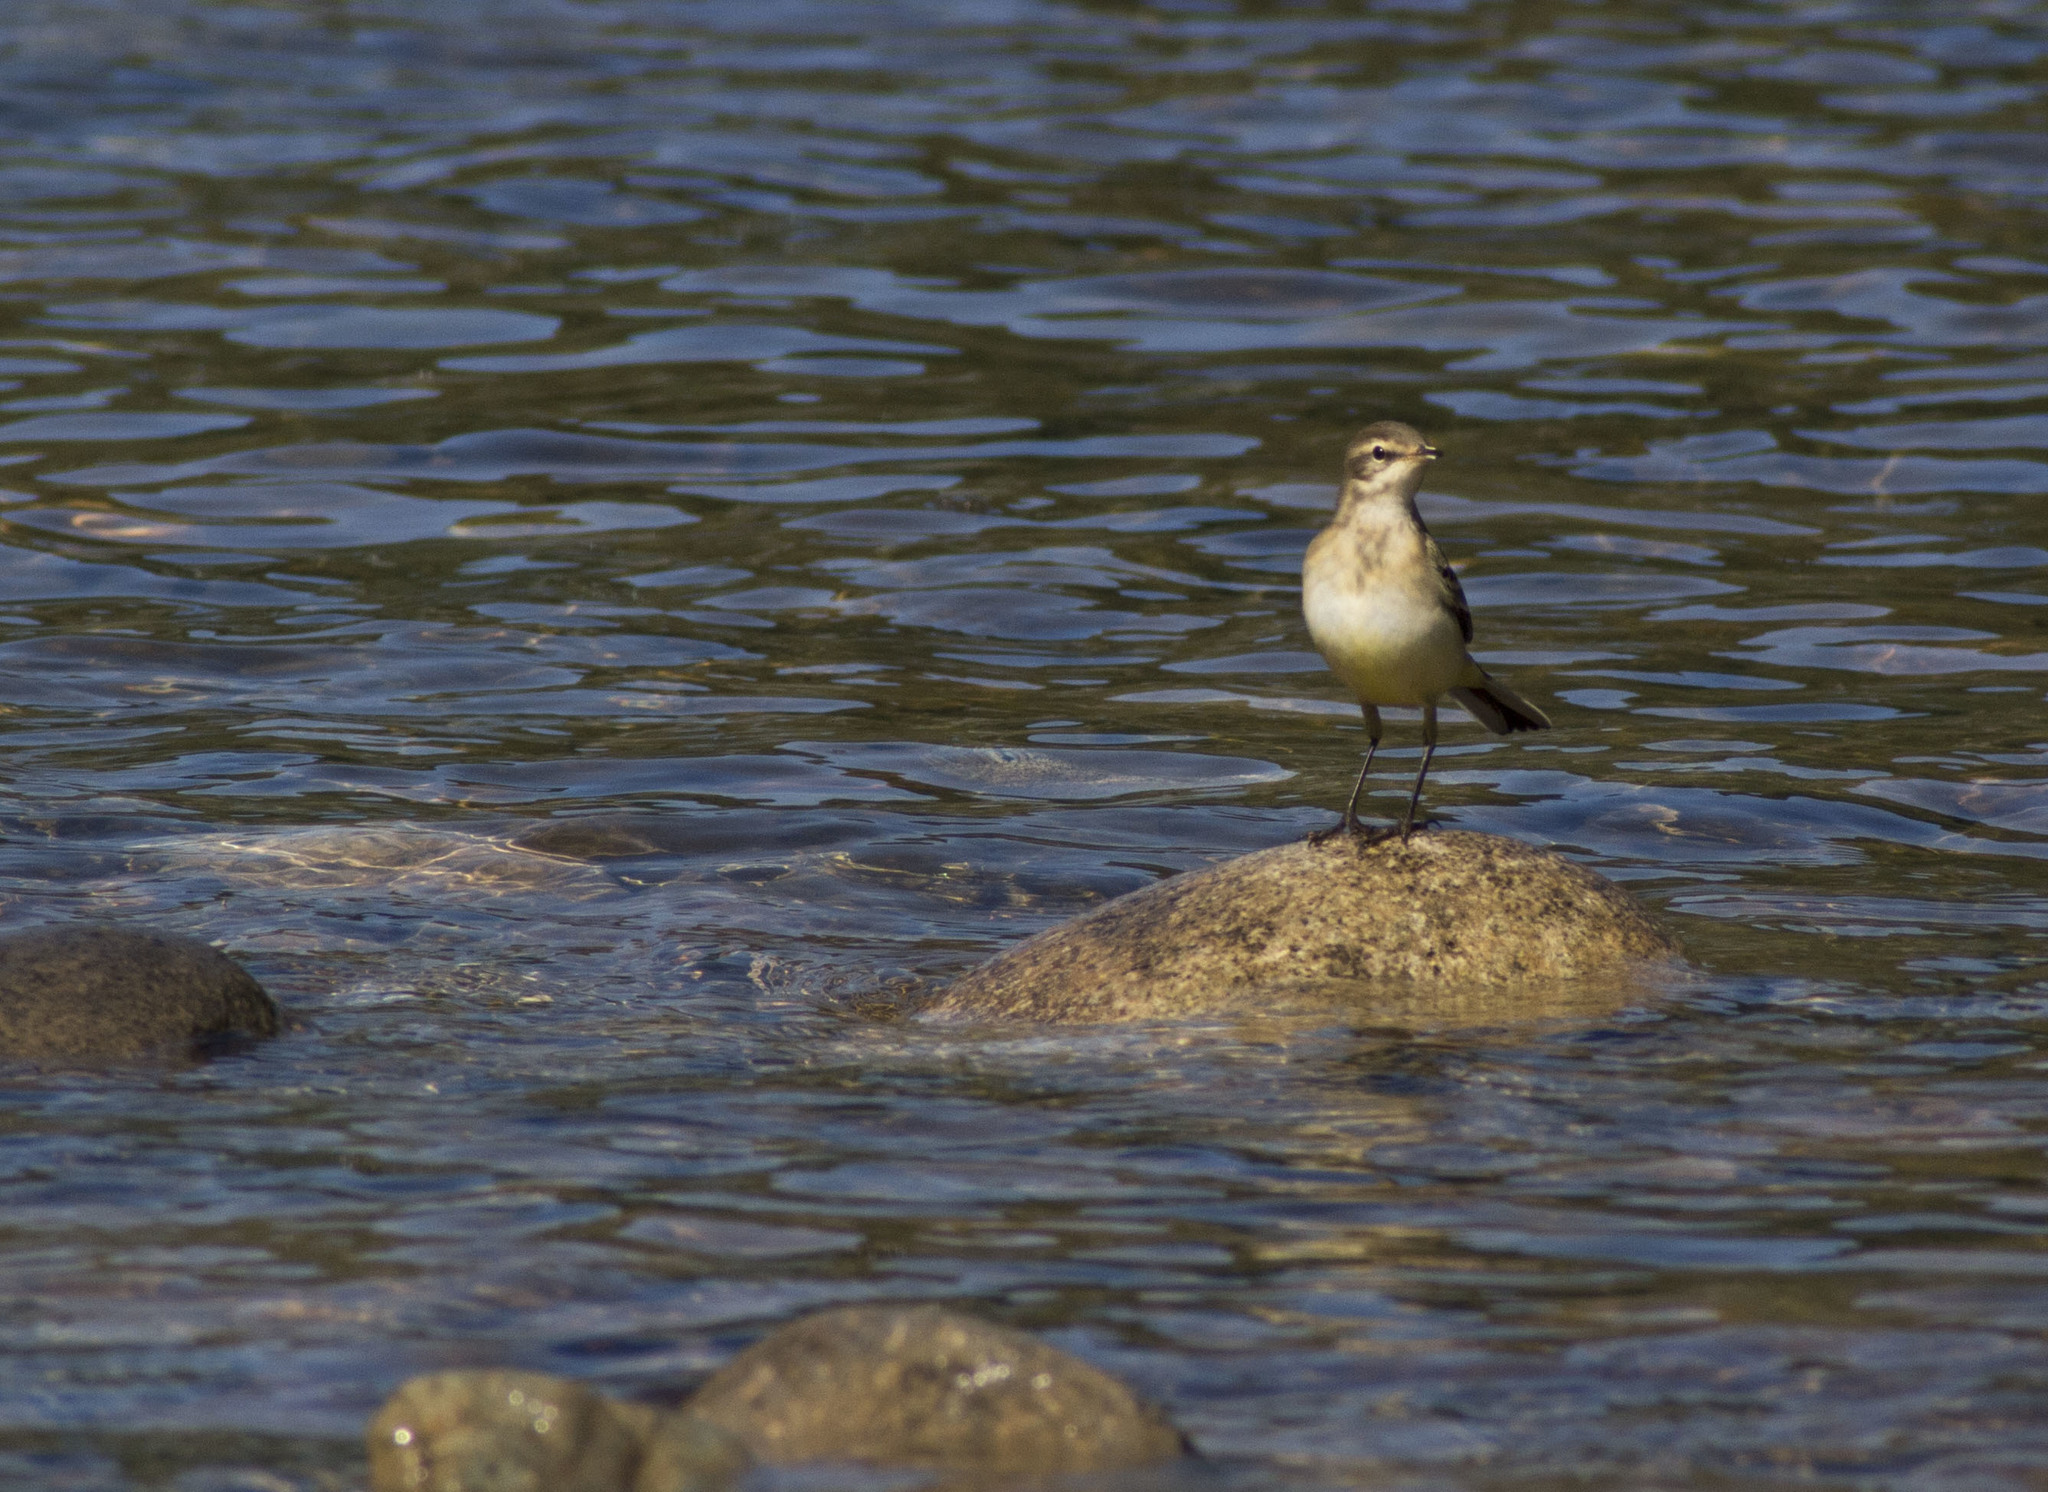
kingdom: Animalia
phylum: Chordata
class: Aves
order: Passeriformes
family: Motacillidae
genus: Motacilla
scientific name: Motacilla flava
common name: Western yellow wagtail
